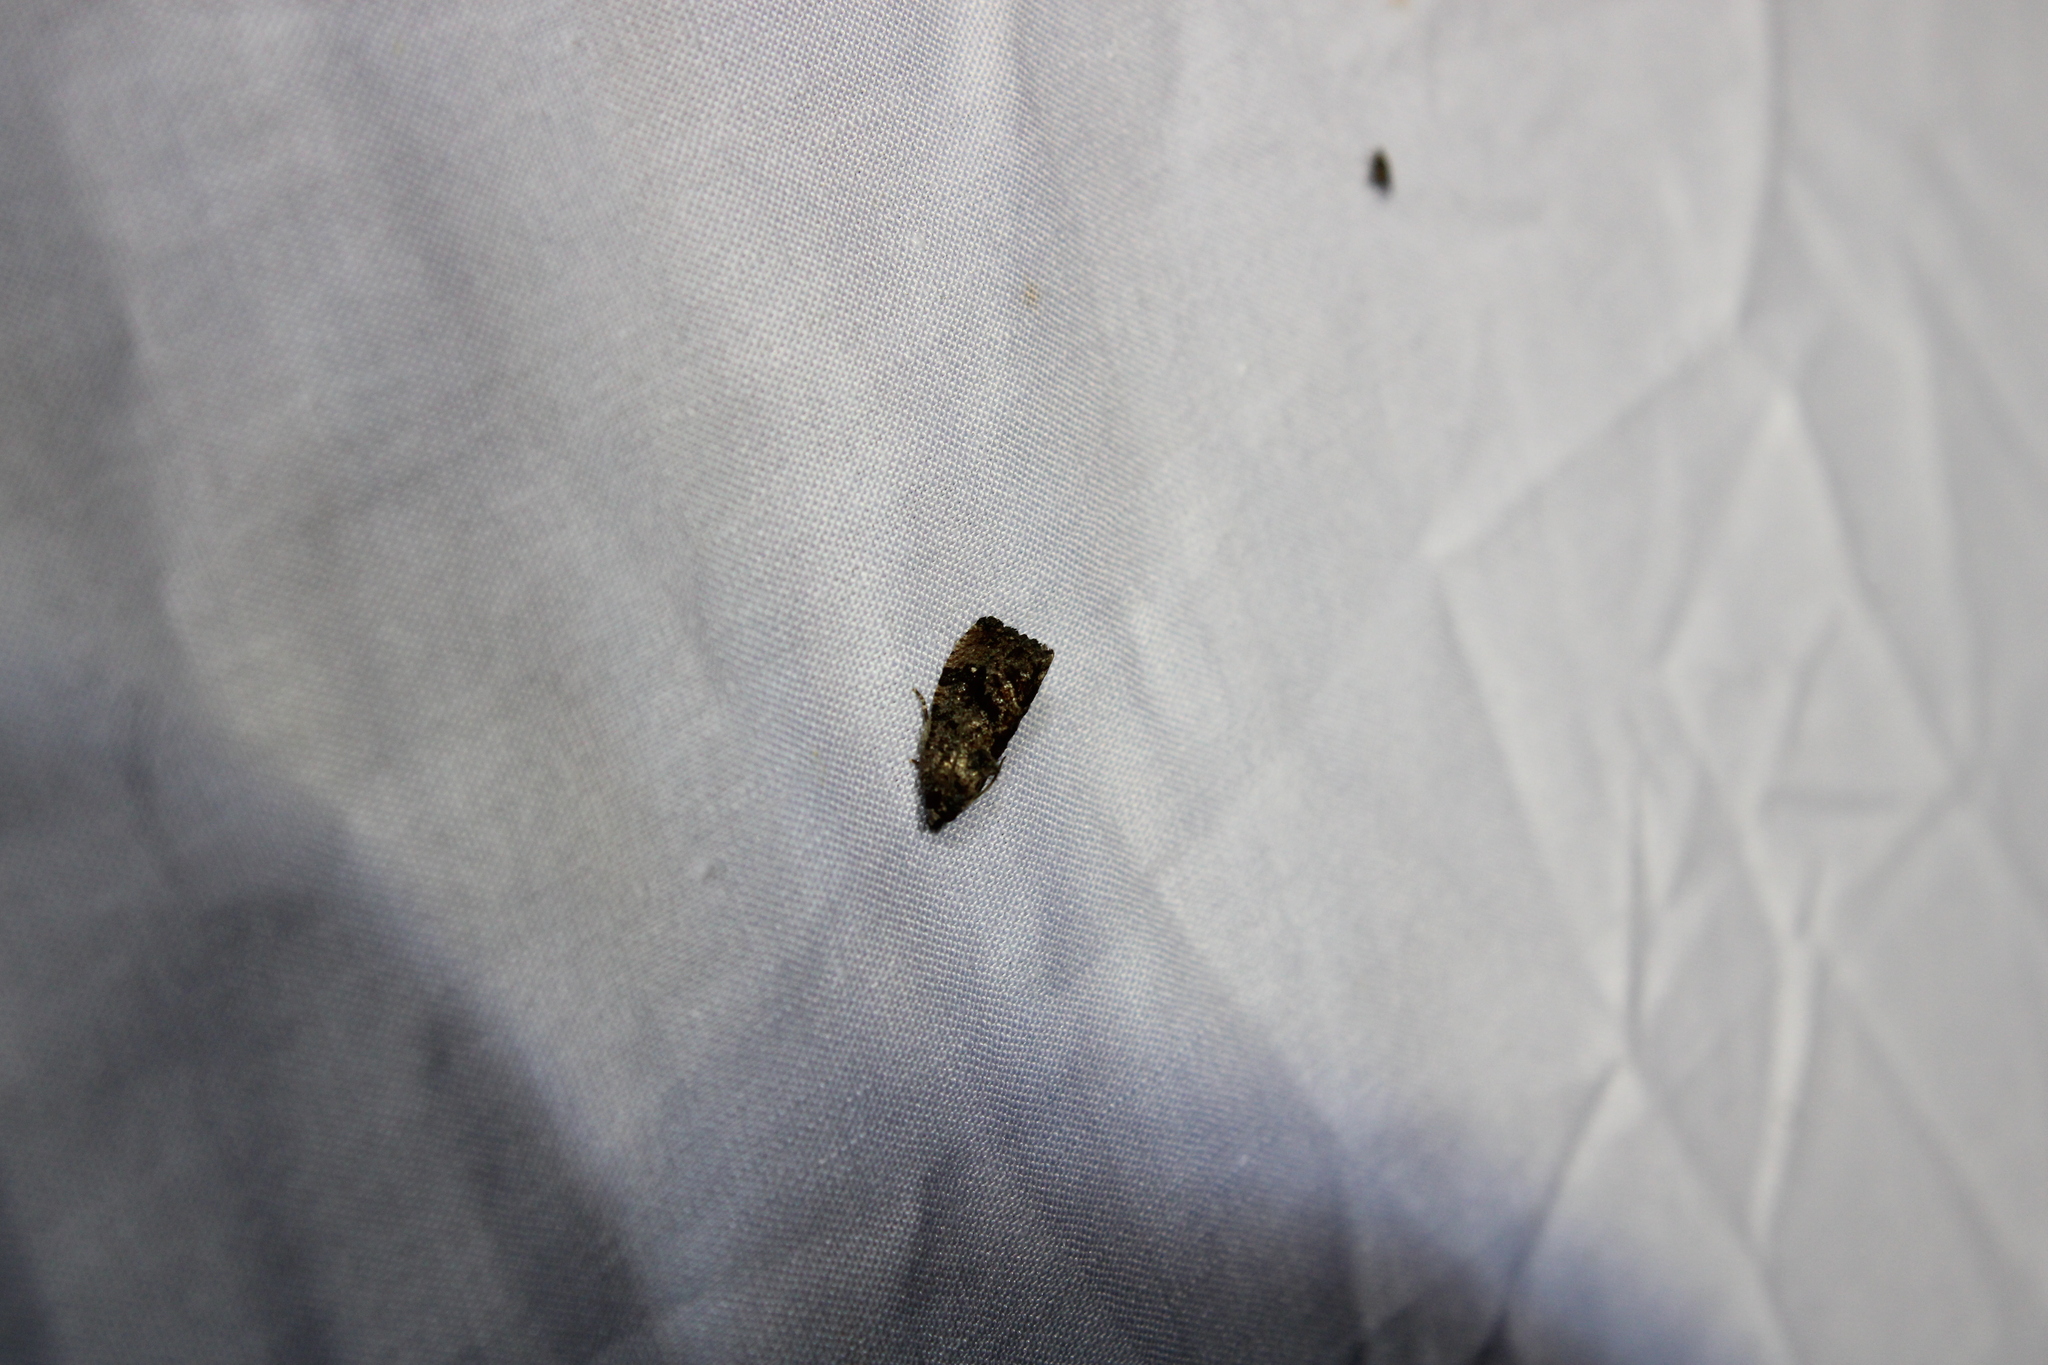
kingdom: Animalia
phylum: Arthropoda
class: Insecta
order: Lepidoptera
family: Tortricidae
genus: Gymnandrosoma
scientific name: Gymnandrosoma punctidiscanum
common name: Dotted ecdytolopha moth
